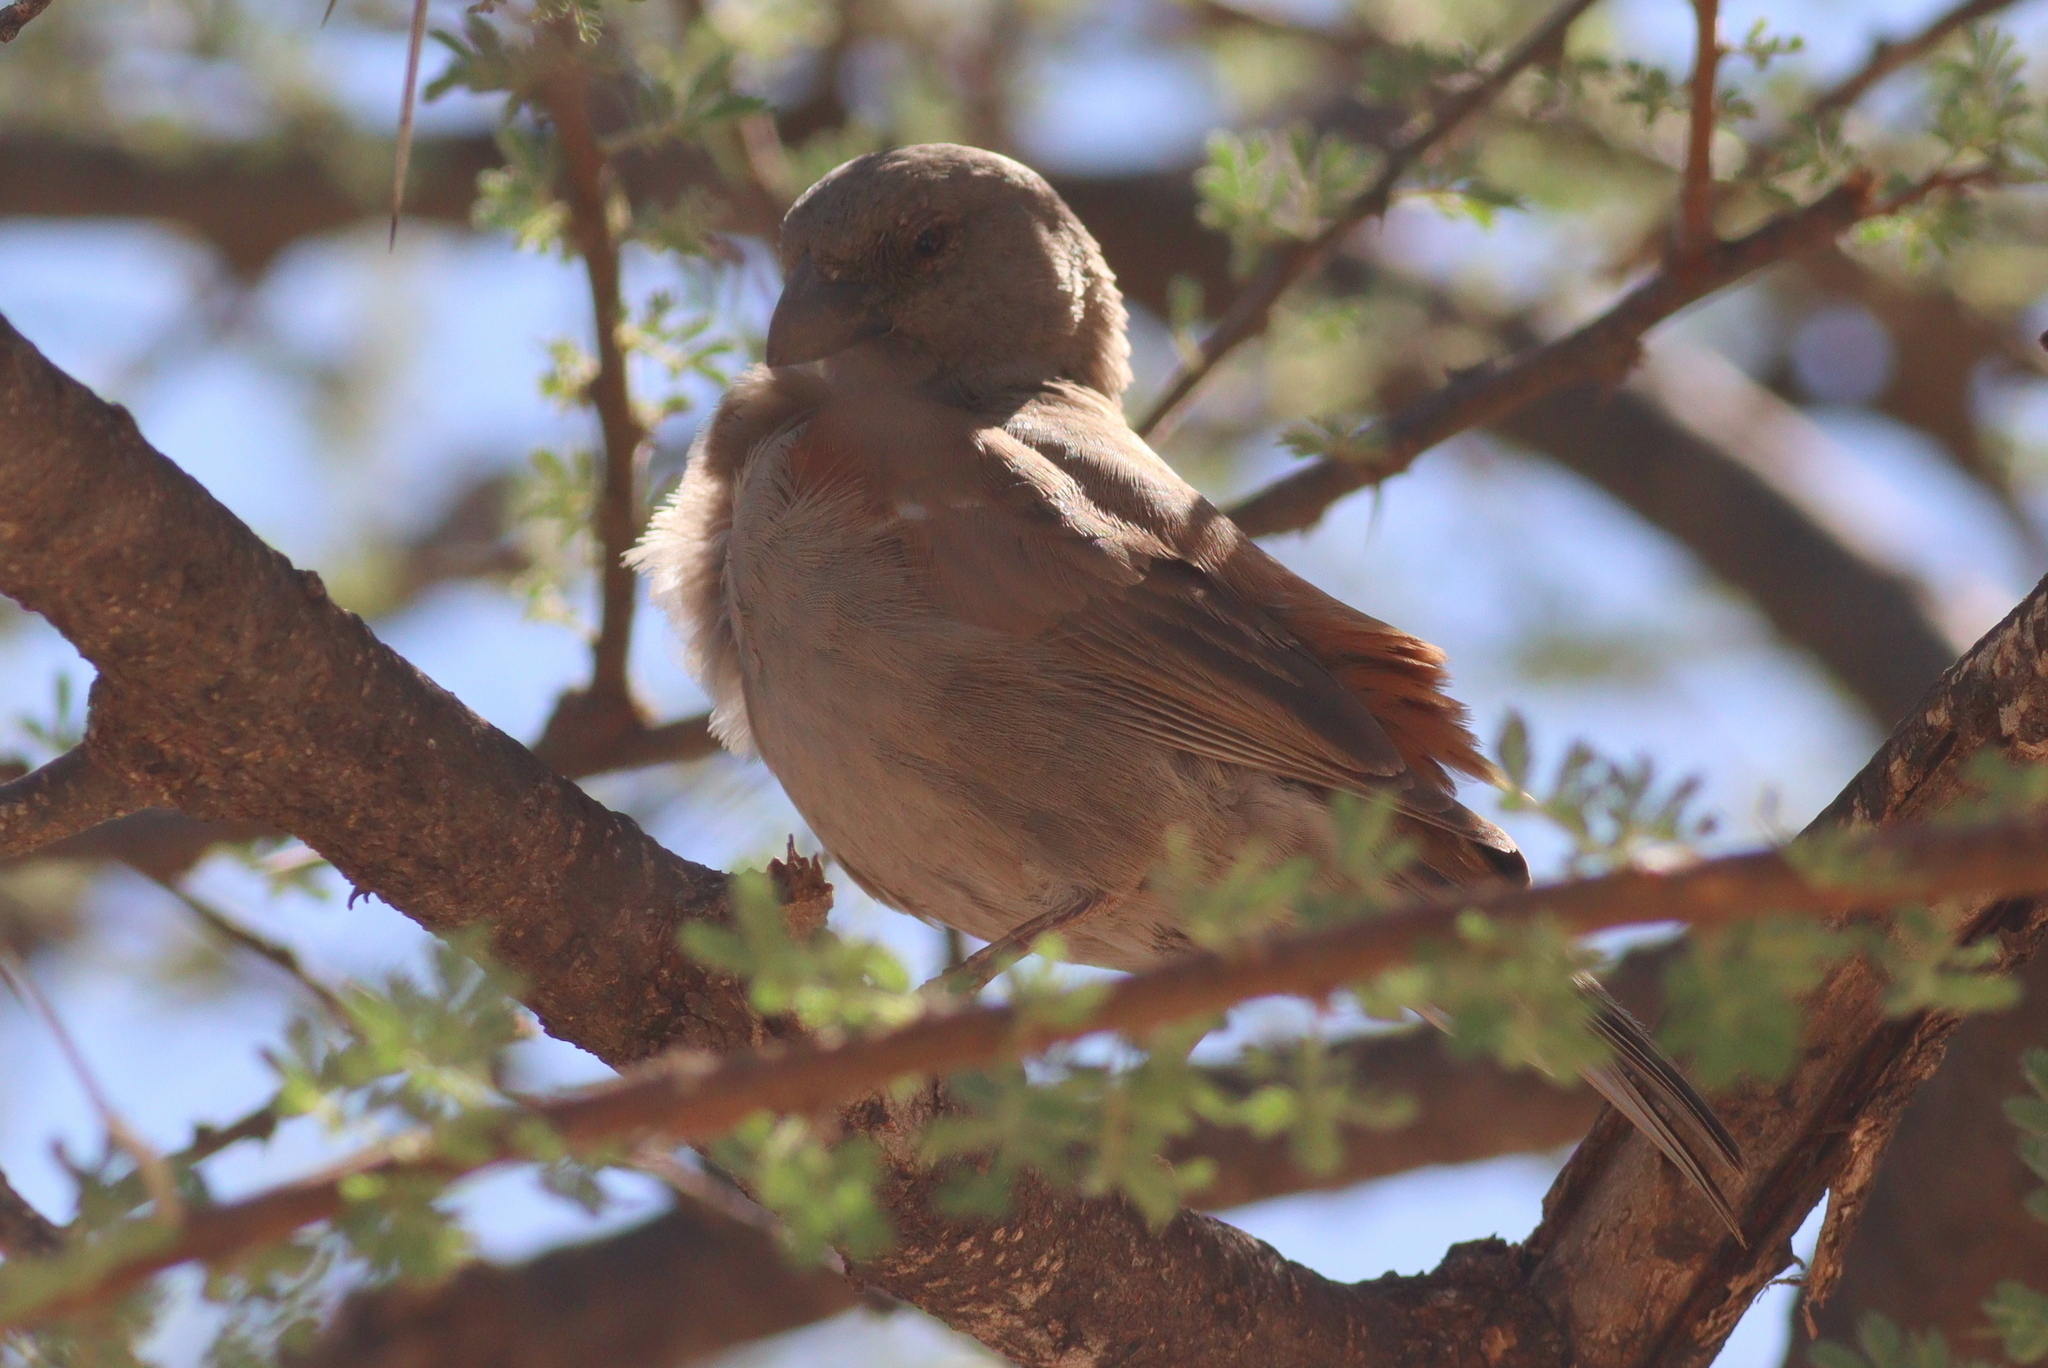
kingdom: Animalia
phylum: Chordata
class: Aves
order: Passeriformes
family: Passeridae
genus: Passer
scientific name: Passer gongonensis
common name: Parrot-billed sparrow
